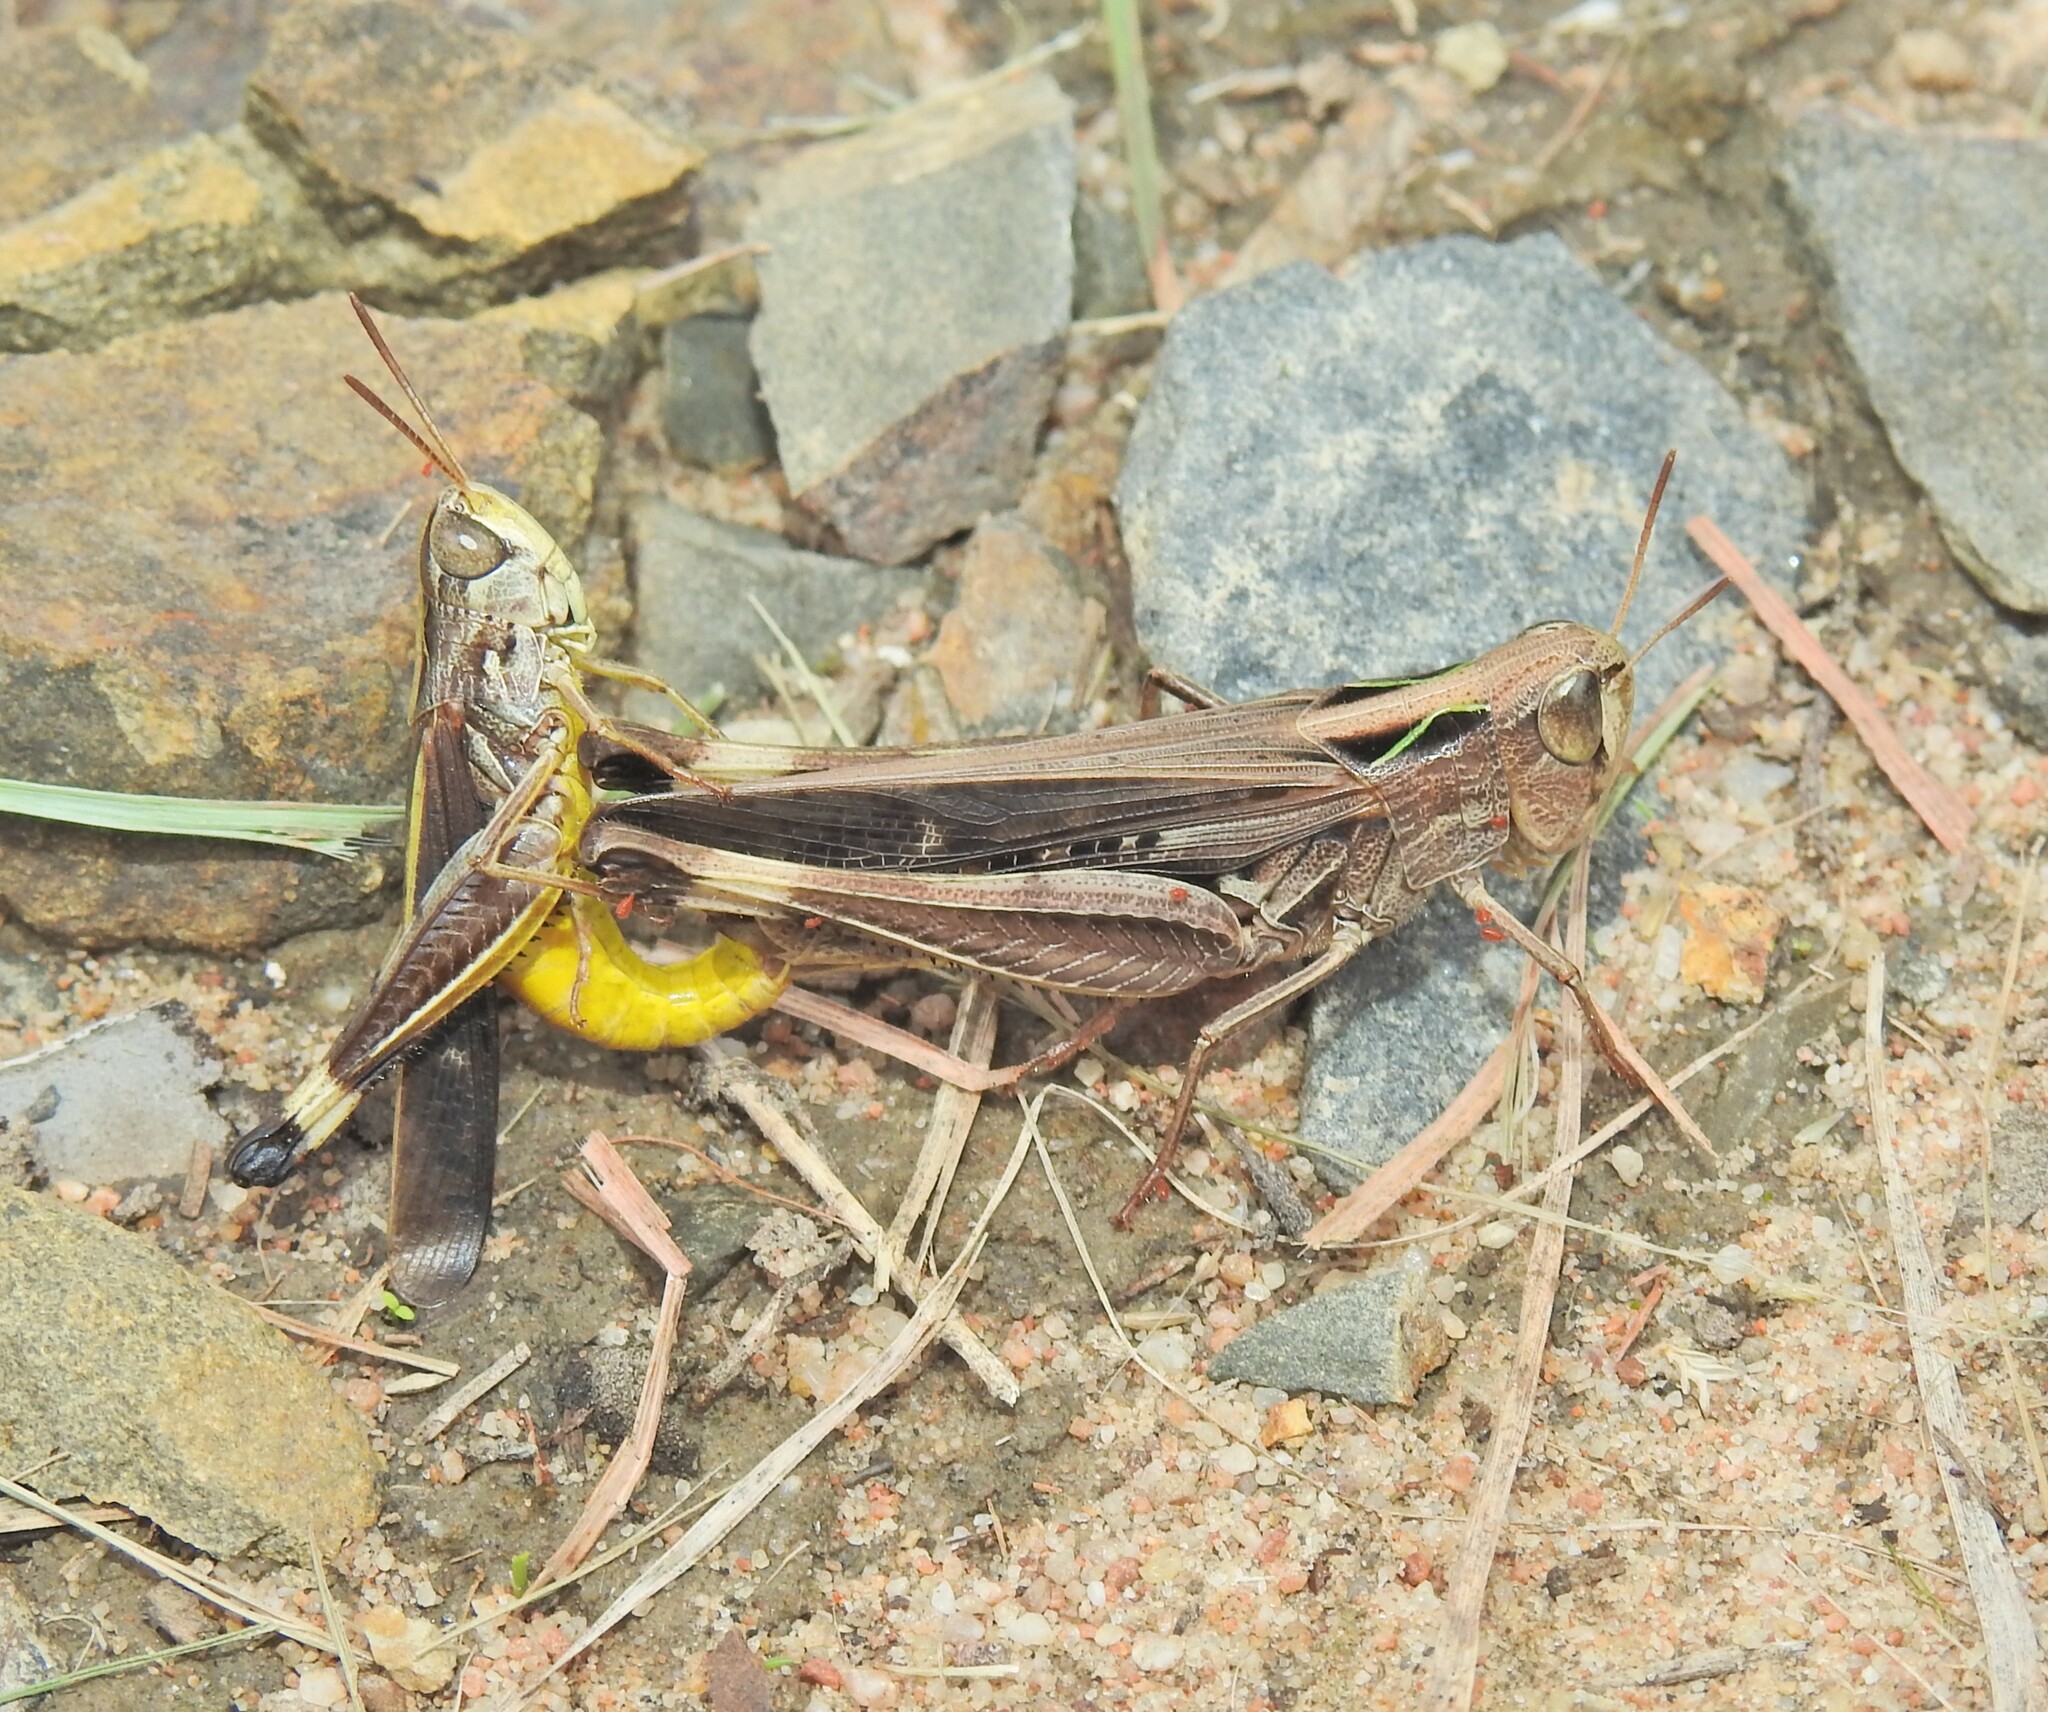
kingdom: Animalia
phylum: Arthropoda
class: Insecta
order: Orthoptera
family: Acrididae
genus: Caledia
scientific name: Caledia captiva
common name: Caledia
